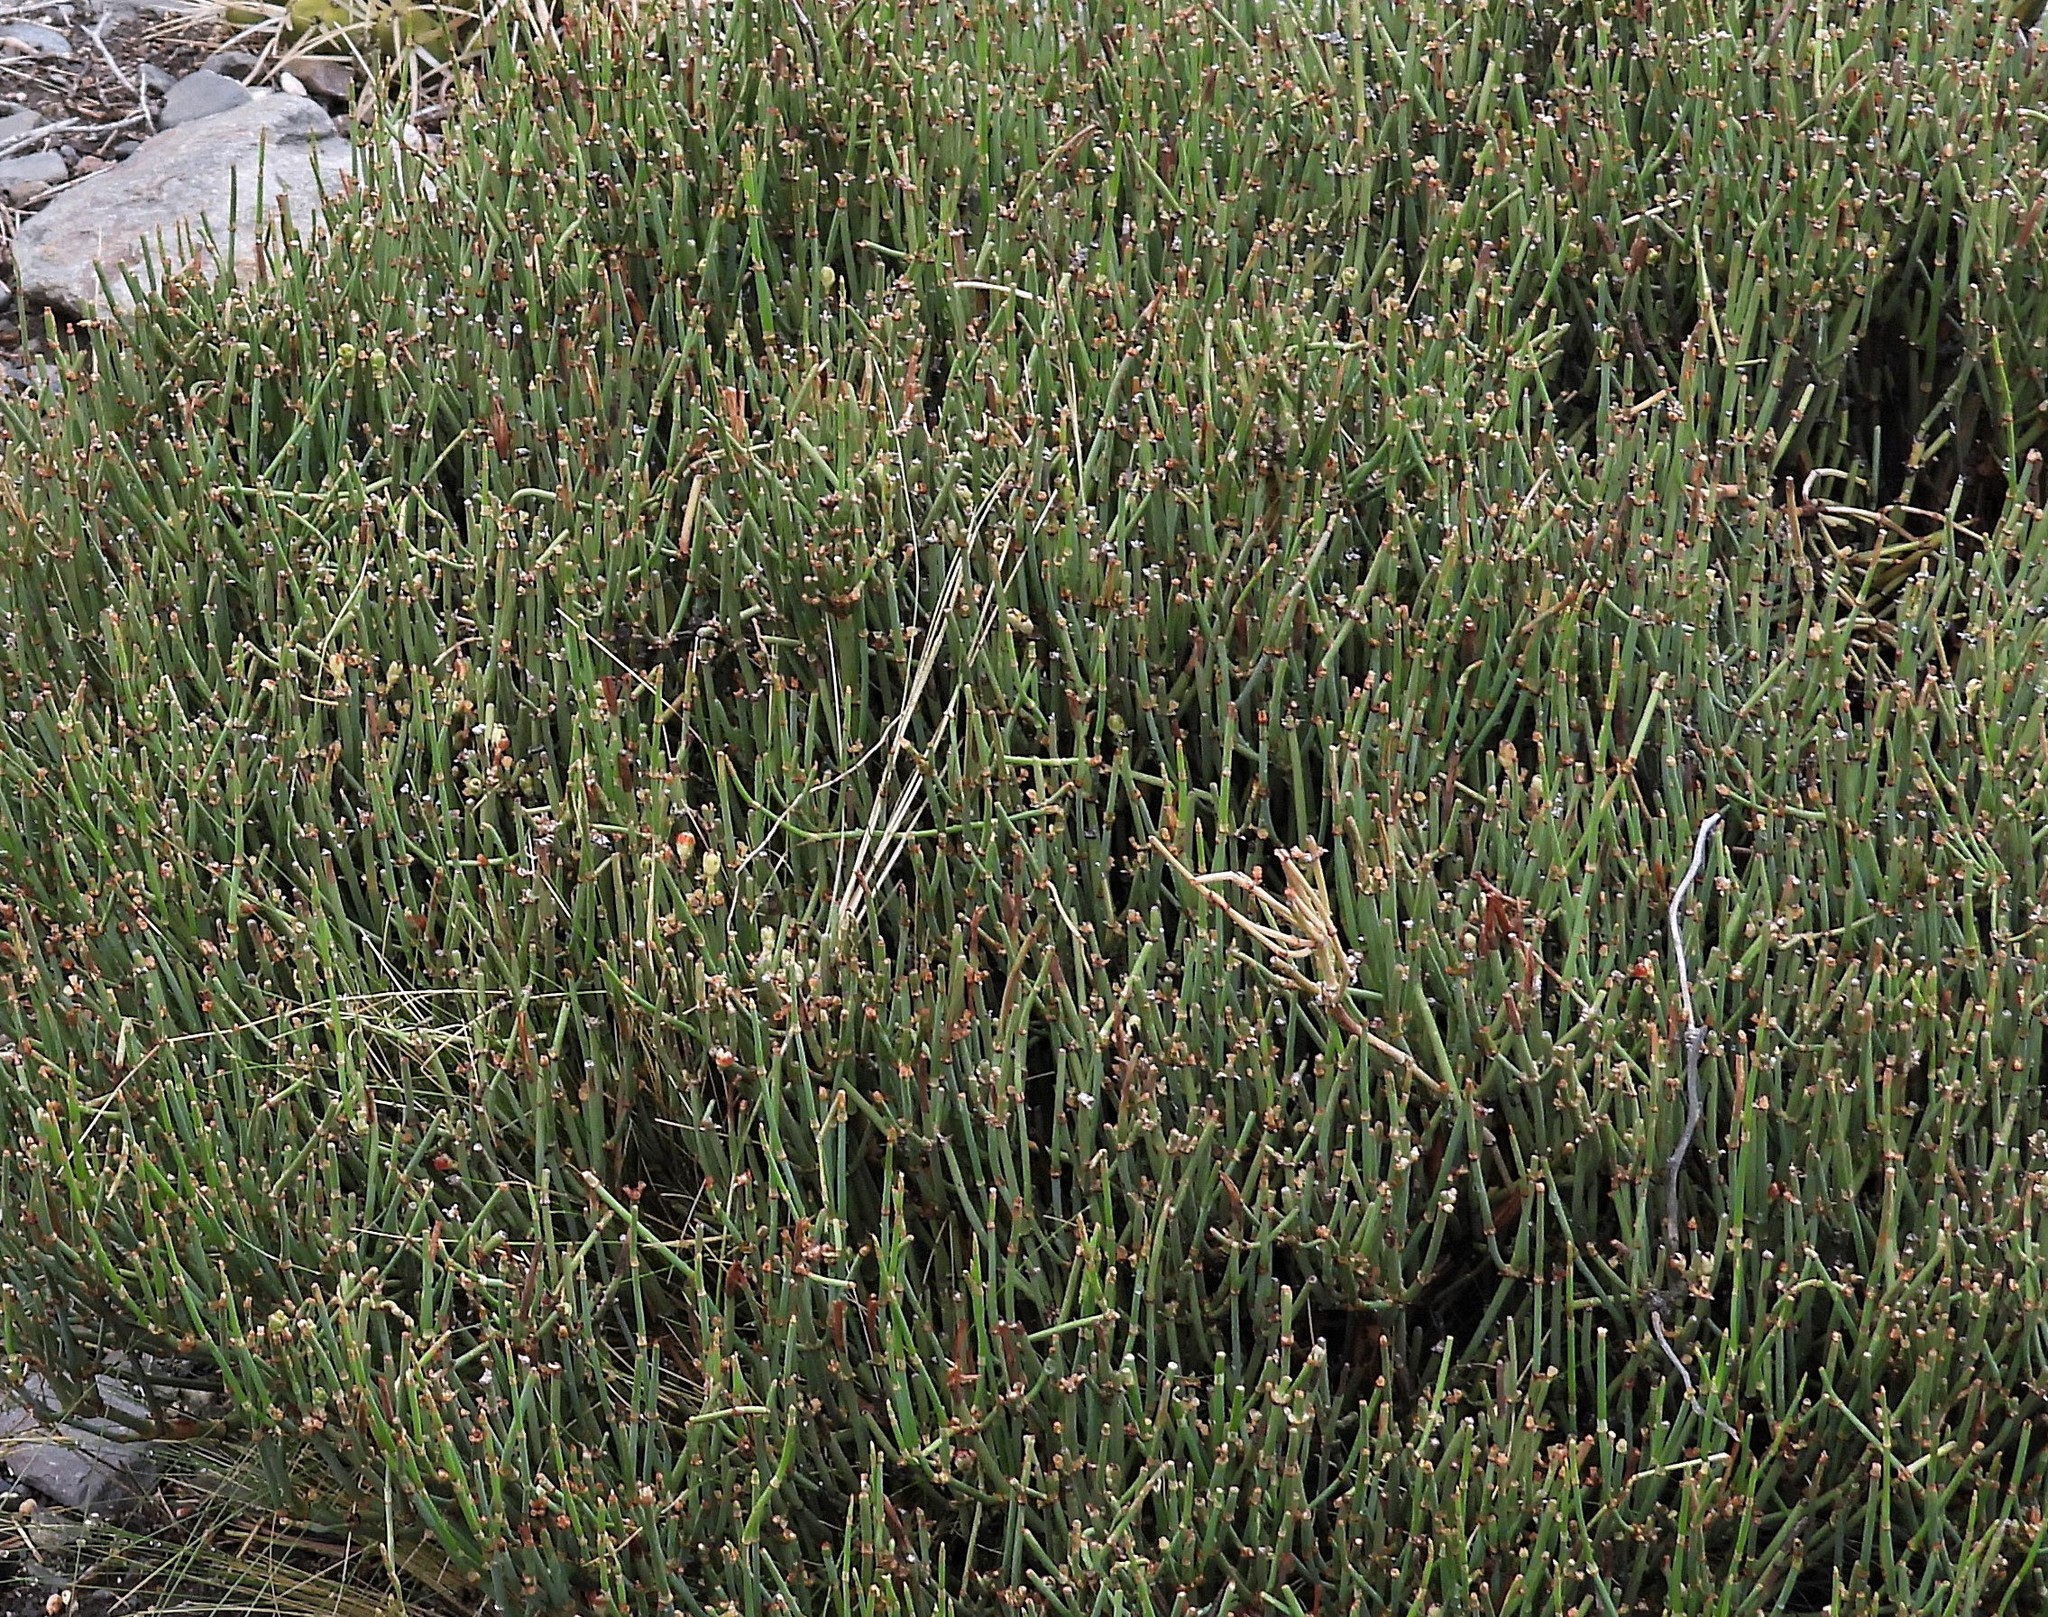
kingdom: Plantae
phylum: Tracheophyta
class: Gnetopsida
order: Ephedrales
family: Ephedraceae
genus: Ephedra
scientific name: Ephedra multiflora
